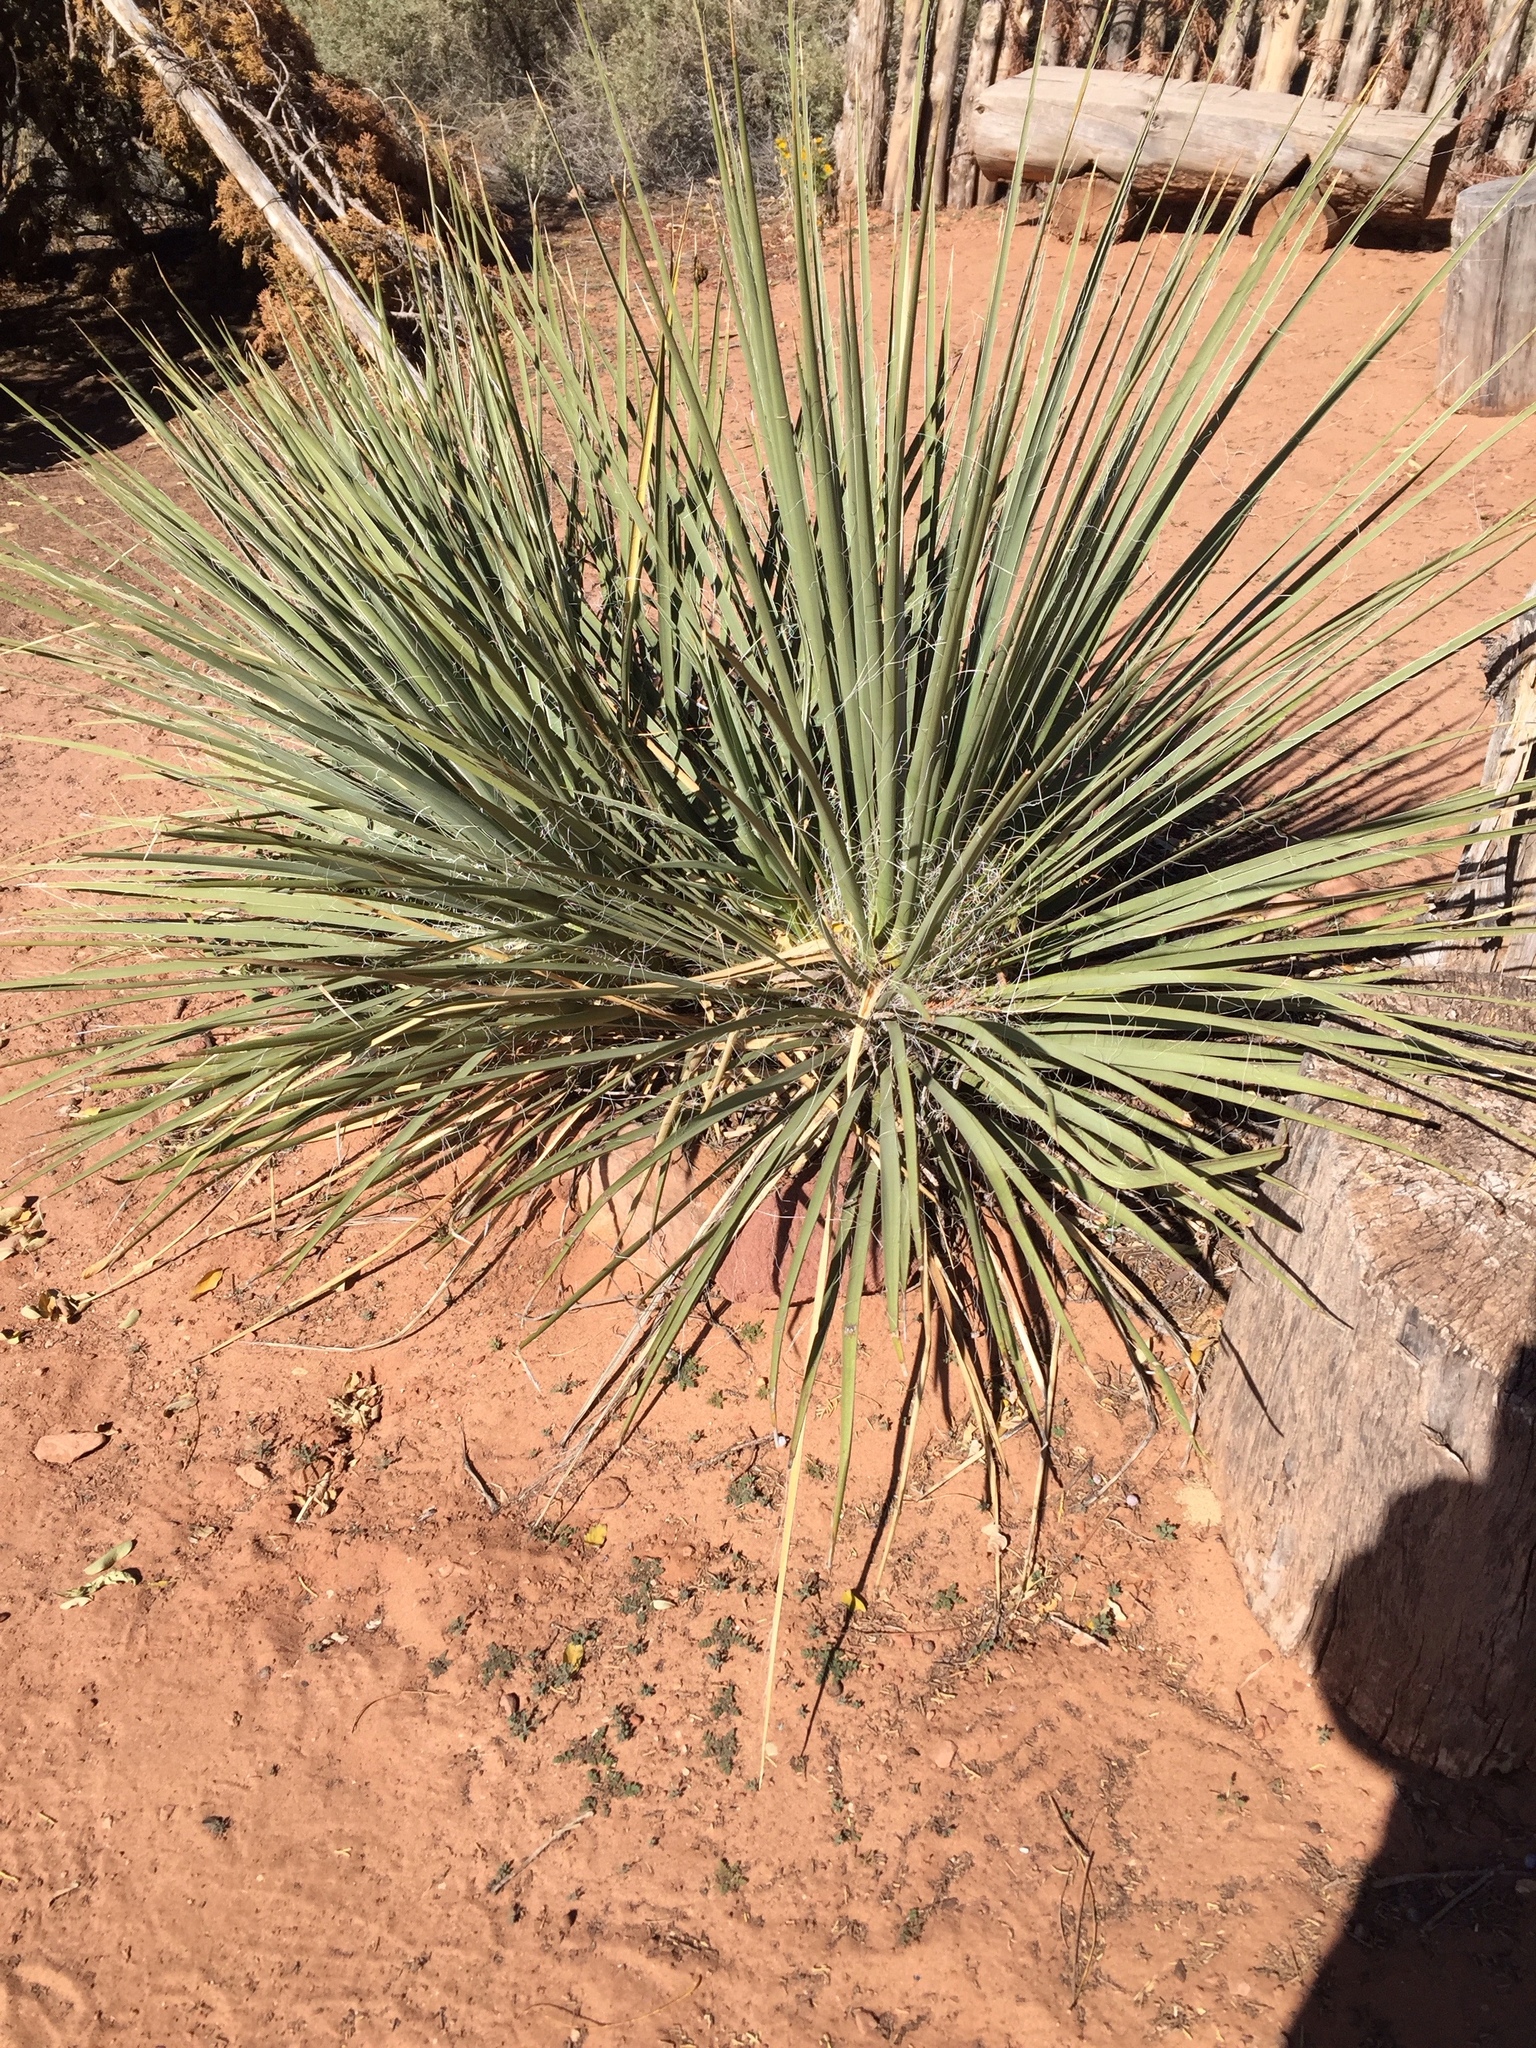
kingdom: Plantae
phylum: Tracheophyta
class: Liliopsida
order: Asparagales
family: Asparagaceae
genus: Yucca
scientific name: Yucca angustissima
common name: Narrowleaf yucca
